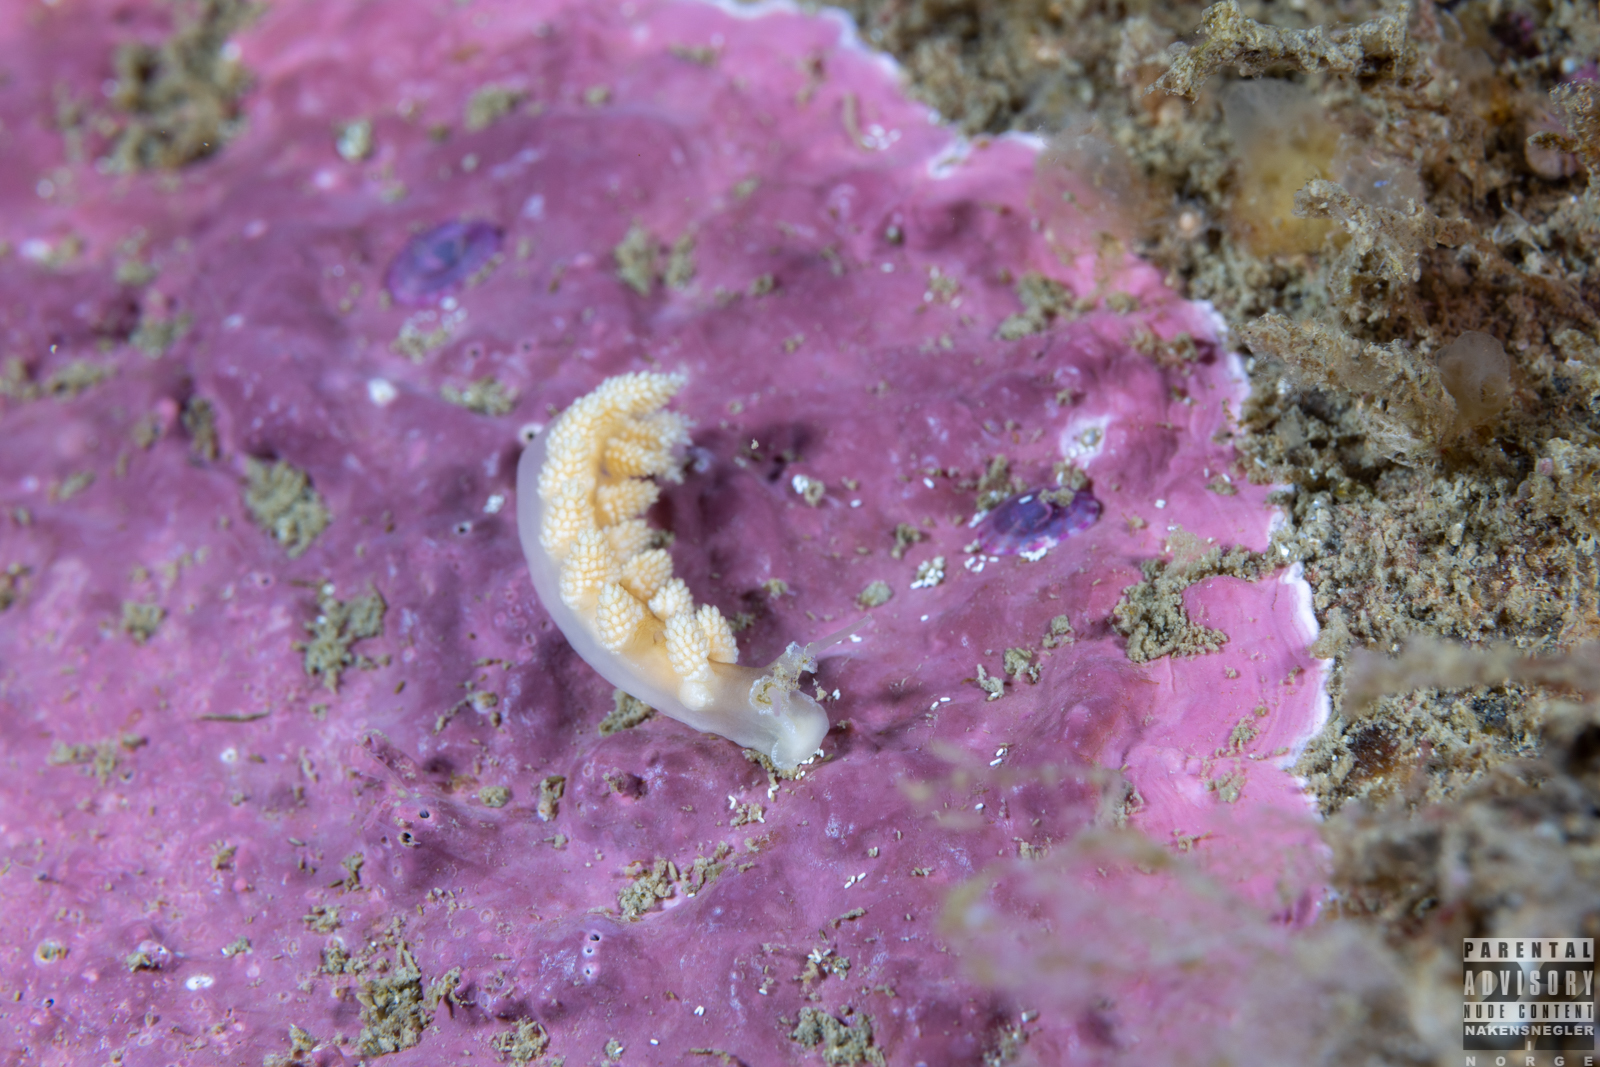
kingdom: Animalia
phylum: Mollusca
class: Gastropoda
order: Nudibranchia
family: Dotidae
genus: Doto
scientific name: Doto fragilis
